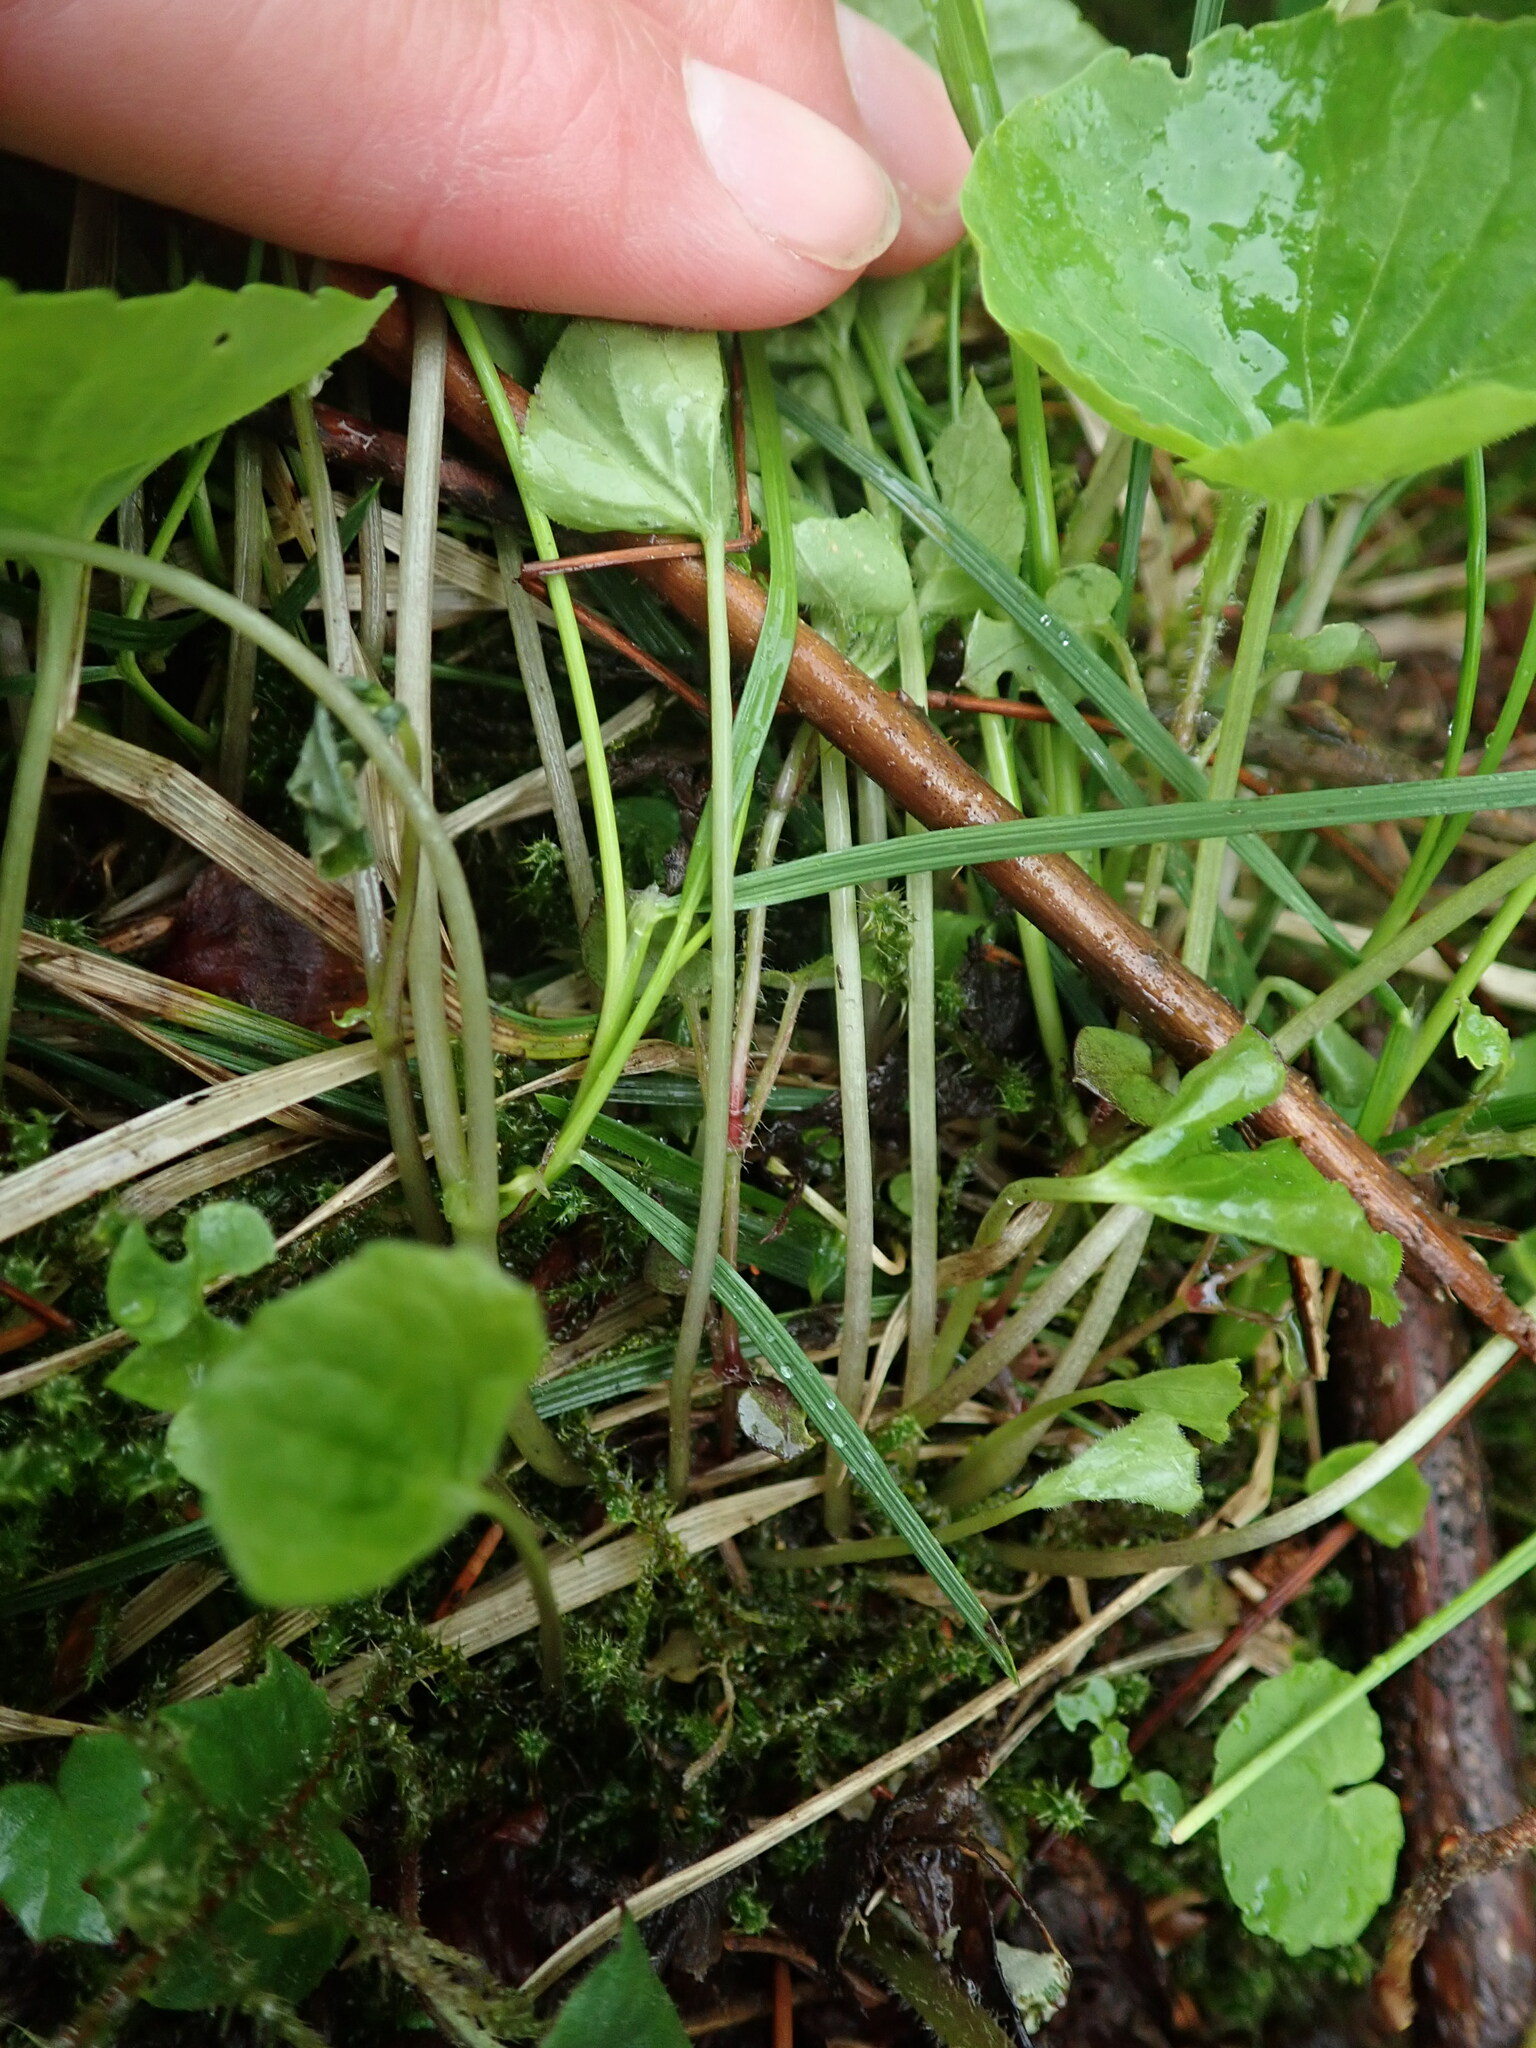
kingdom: Plantae
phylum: Tracheophyta
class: Magnoliopsida
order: Malpighiales
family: Violaceae
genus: Viola
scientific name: Viola biflora
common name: Alpine yellow violet
